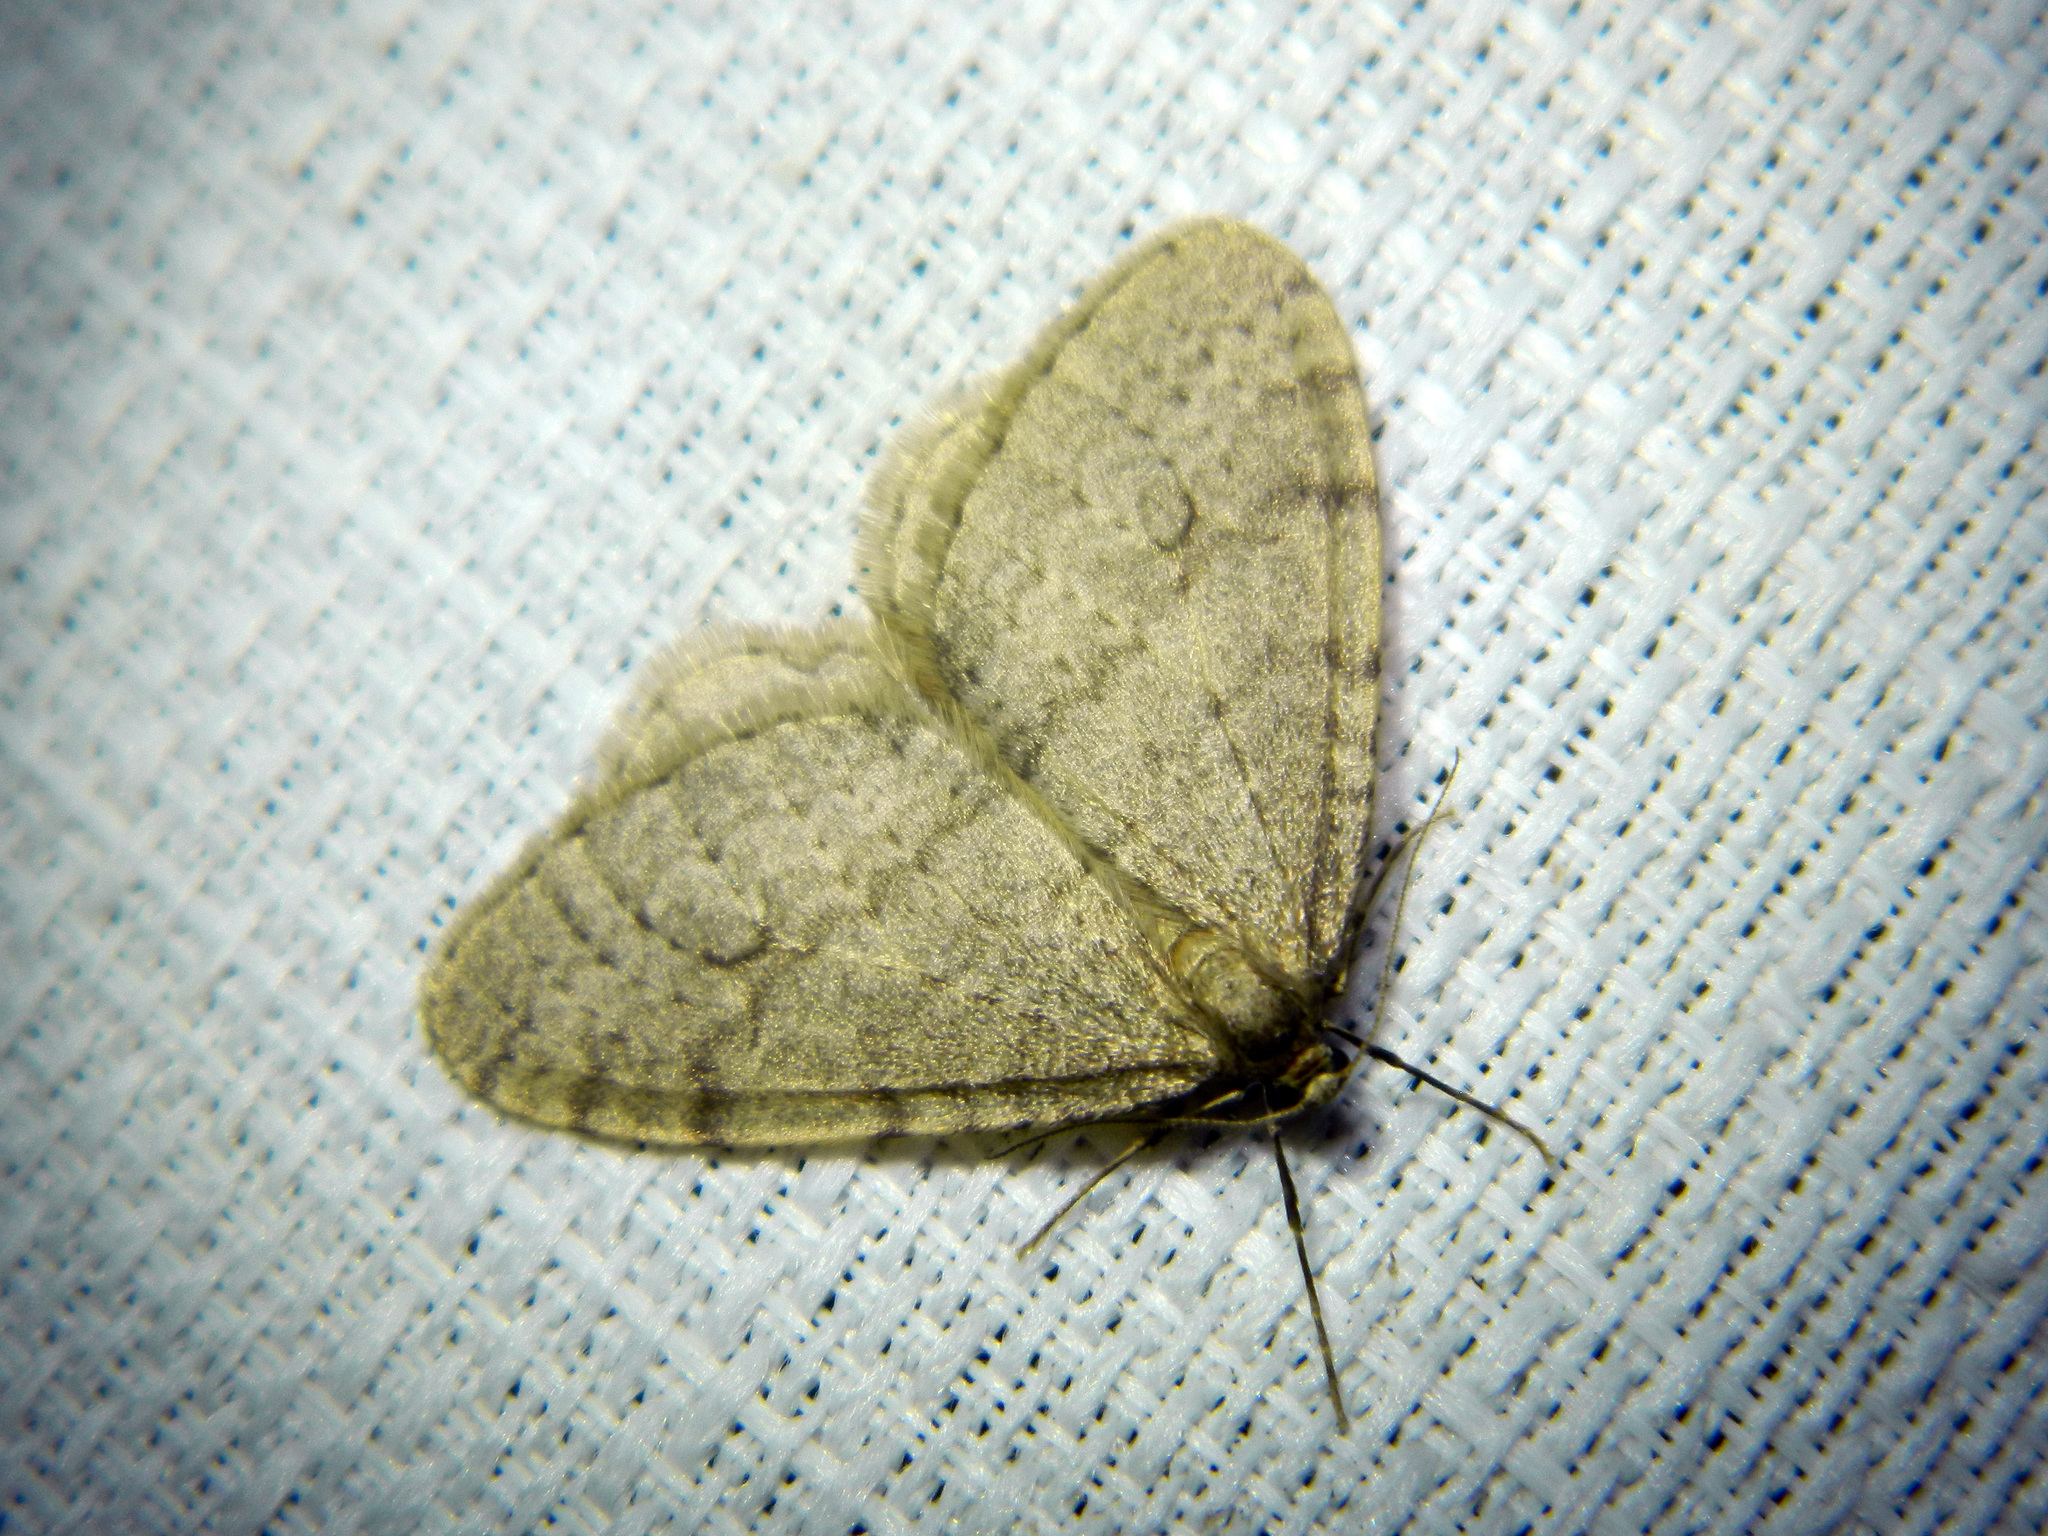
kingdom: Animalia
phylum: Arthropoda
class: Insecta
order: Lepidoptera
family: Geometridae
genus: Operophtera
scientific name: Operophtera bruceata
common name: Bruce spanworm
